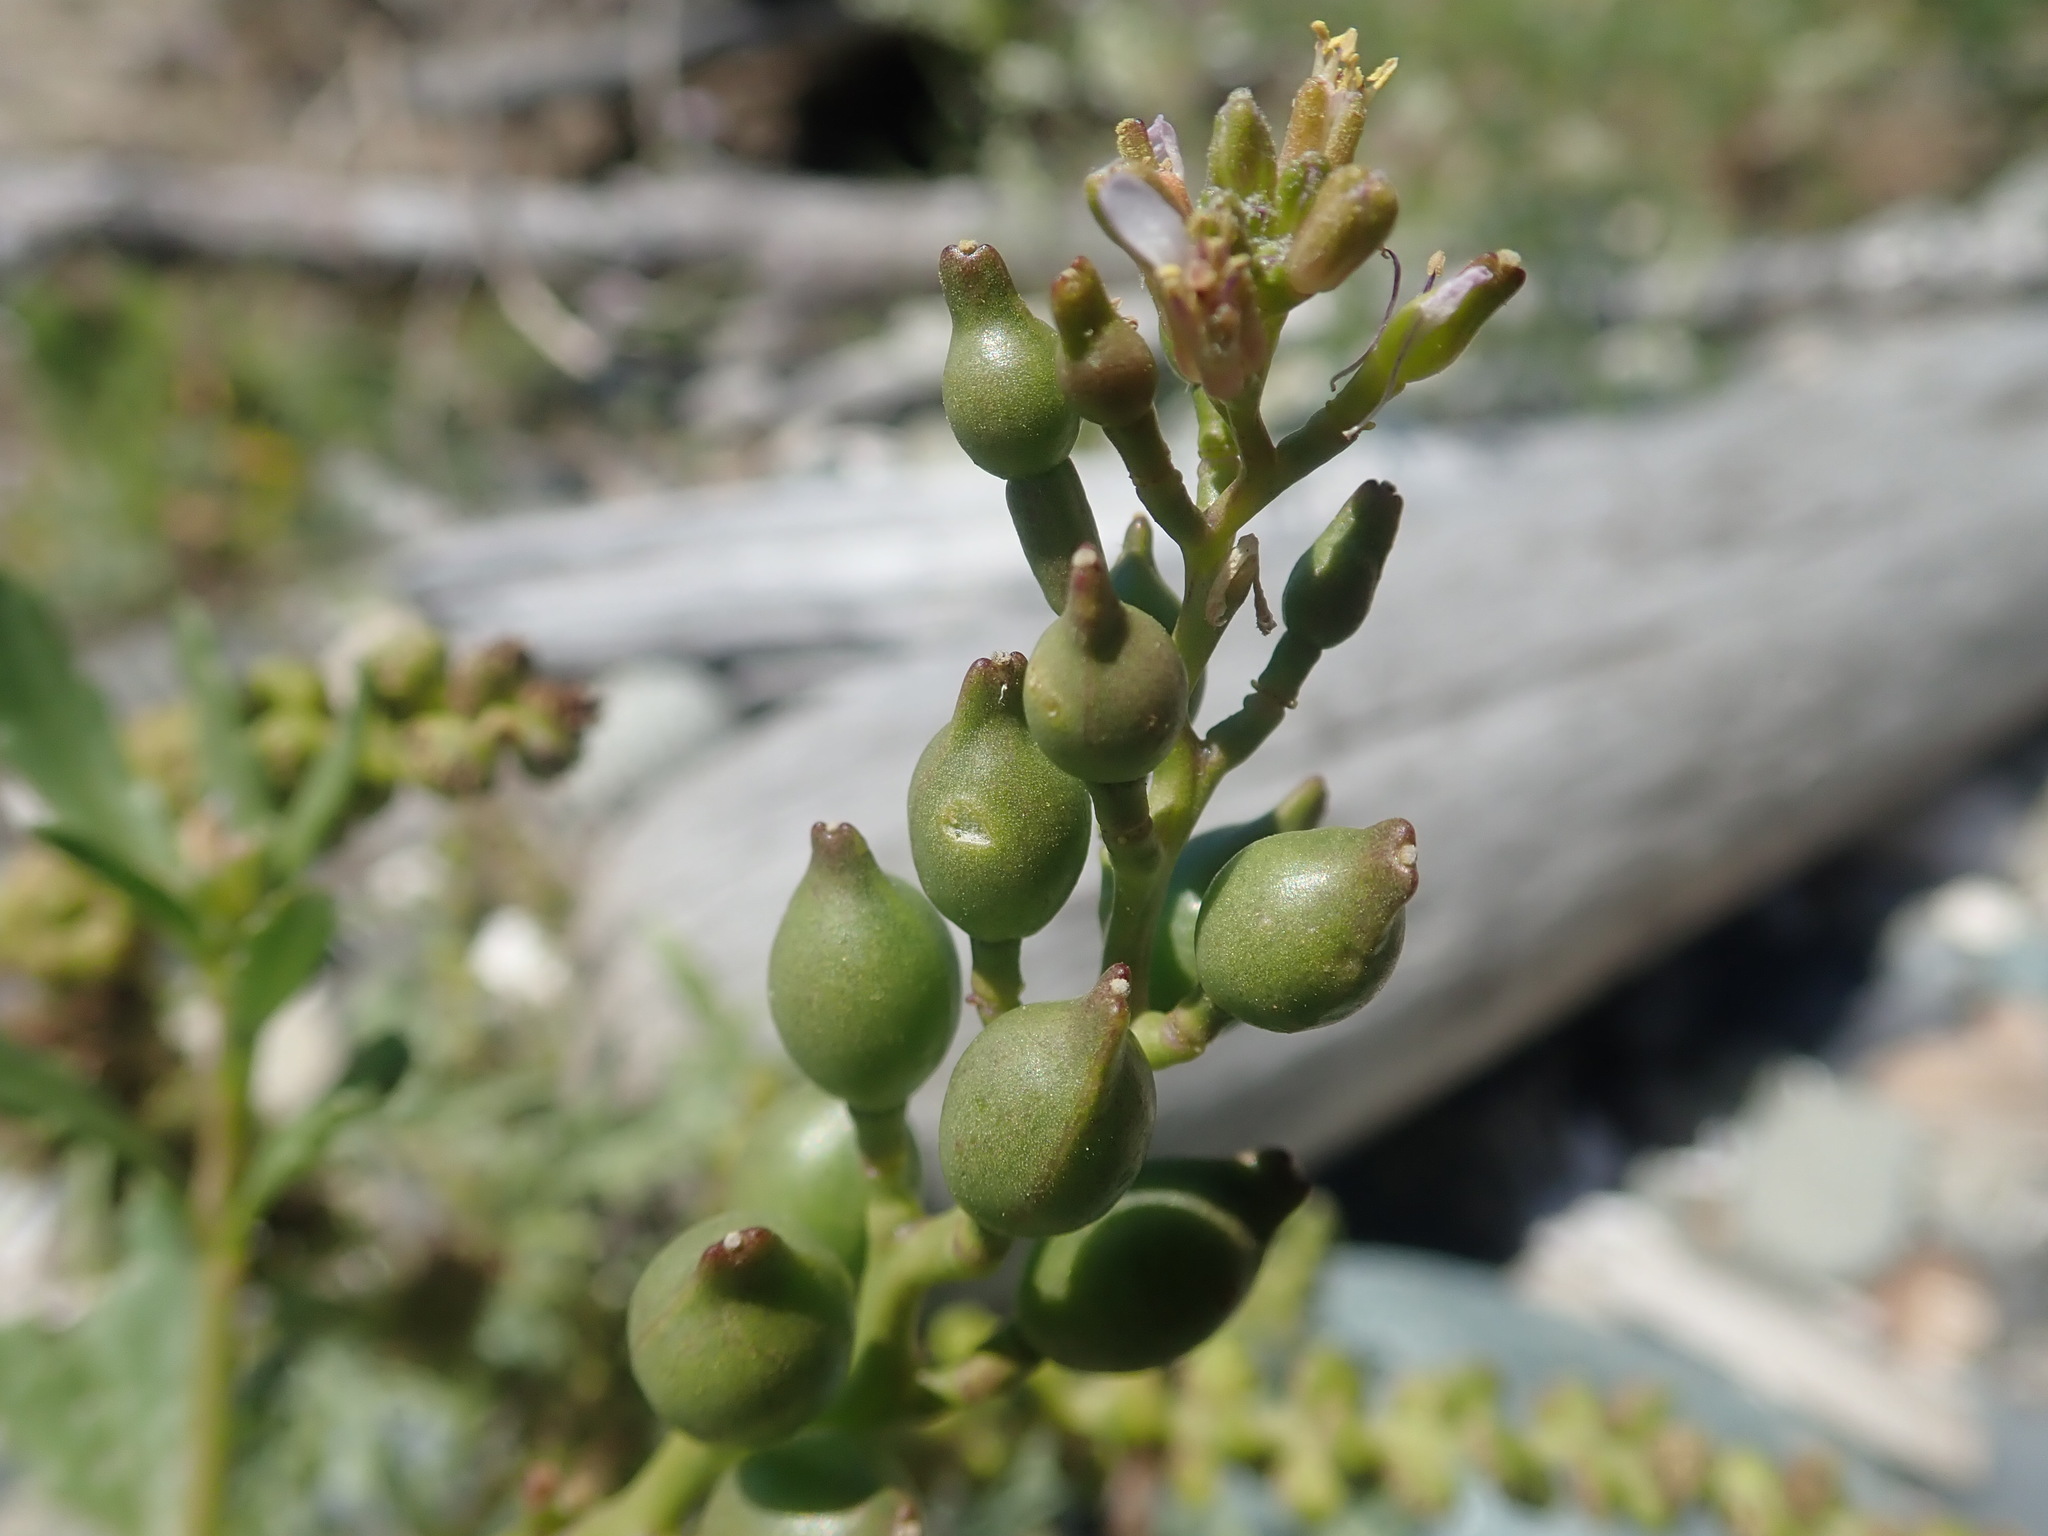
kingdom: Plantae
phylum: Tracheophyta
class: Magnoliopsida
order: Brassicales
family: Brassicaceae
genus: Cakile
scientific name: Cakile edentula
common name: American sea rocket
